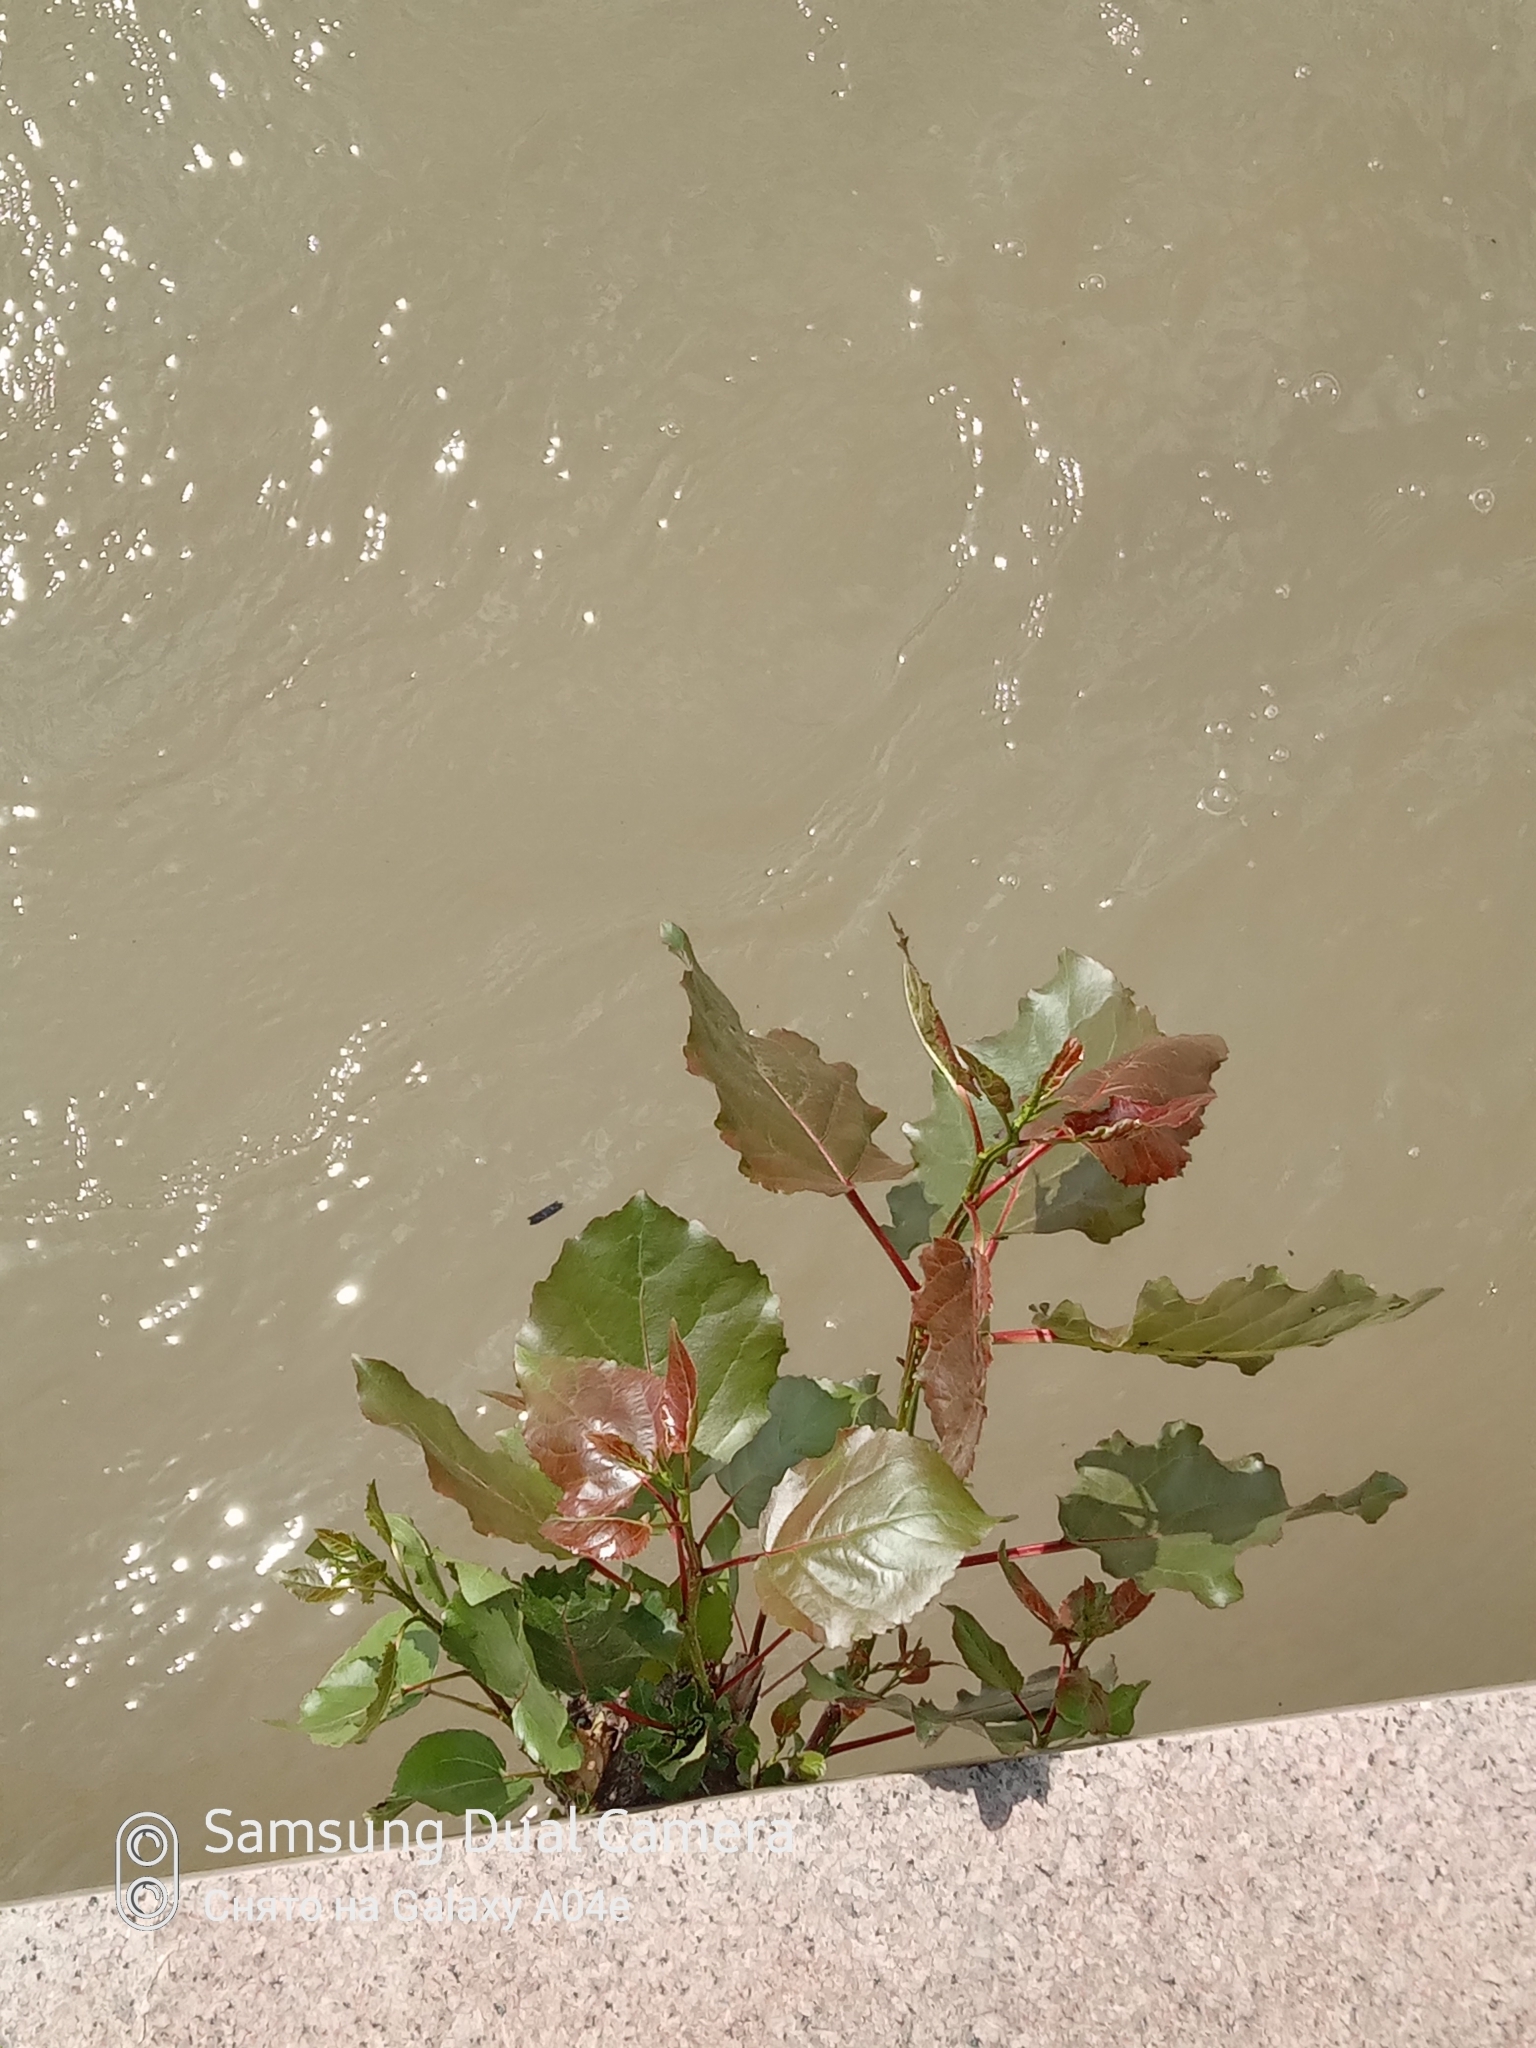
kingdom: Plantae
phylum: Tracheophyta
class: Magnoliopsida
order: Malpighiales
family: Salicaceae
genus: Populus
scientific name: Populus nigra
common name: Black poplar
